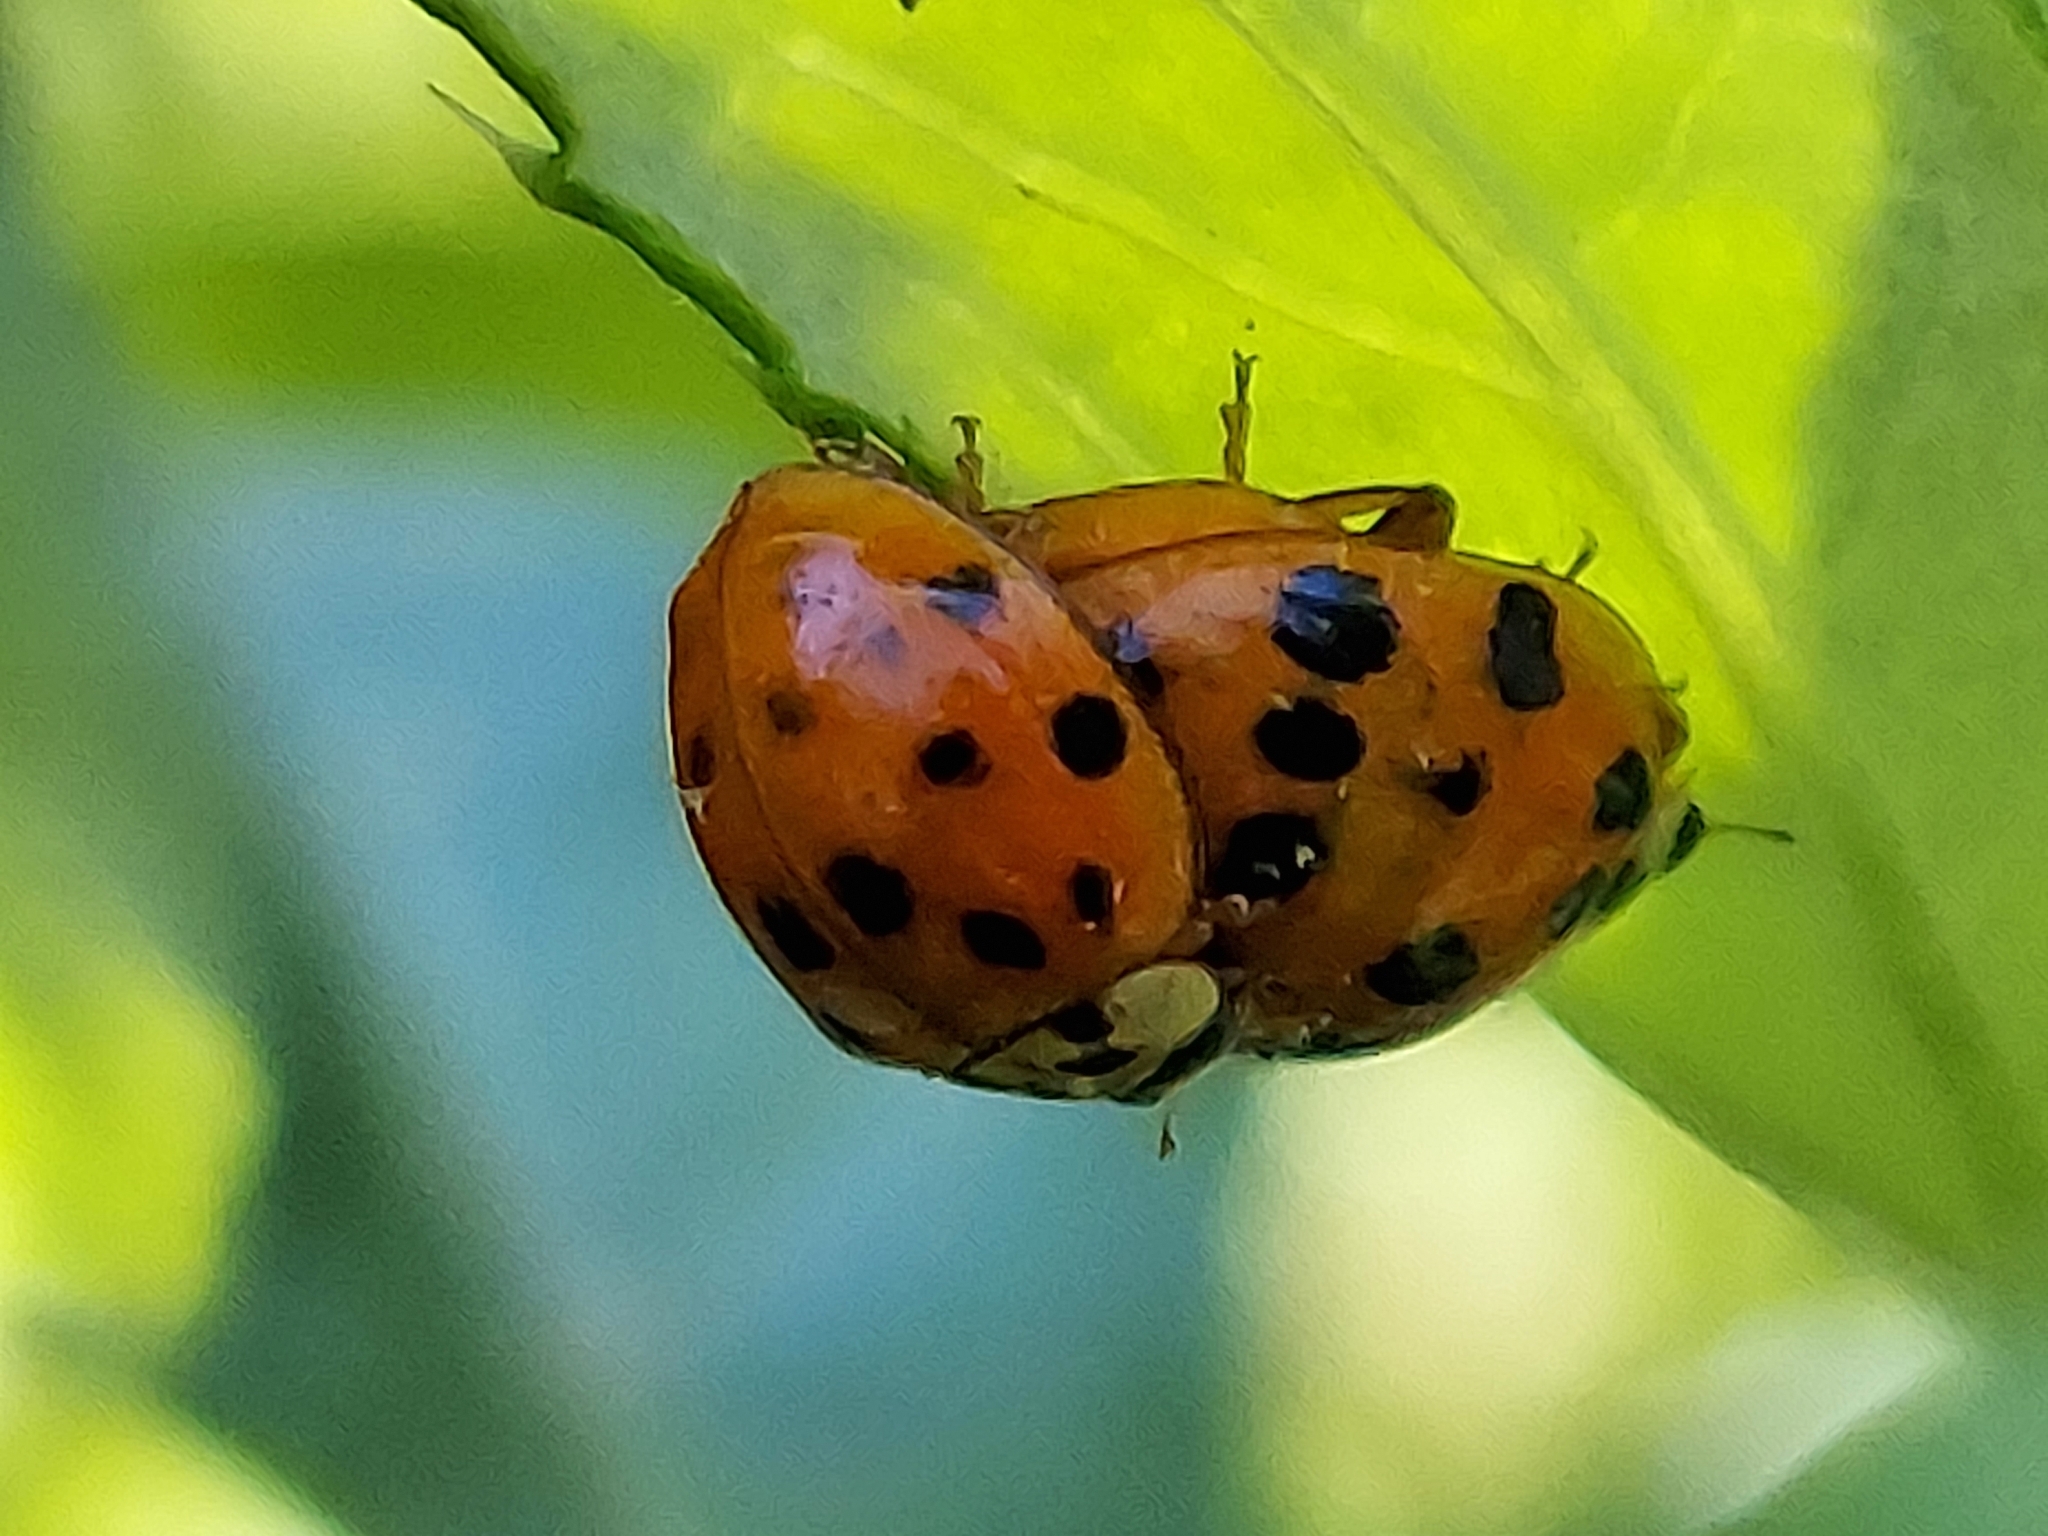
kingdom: Animalia
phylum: Arthropoda
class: Insecta
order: Coleoptera
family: Coccinellidae
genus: Harmonia
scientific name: Harmonia axyridis
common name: Harlequin ladybird
